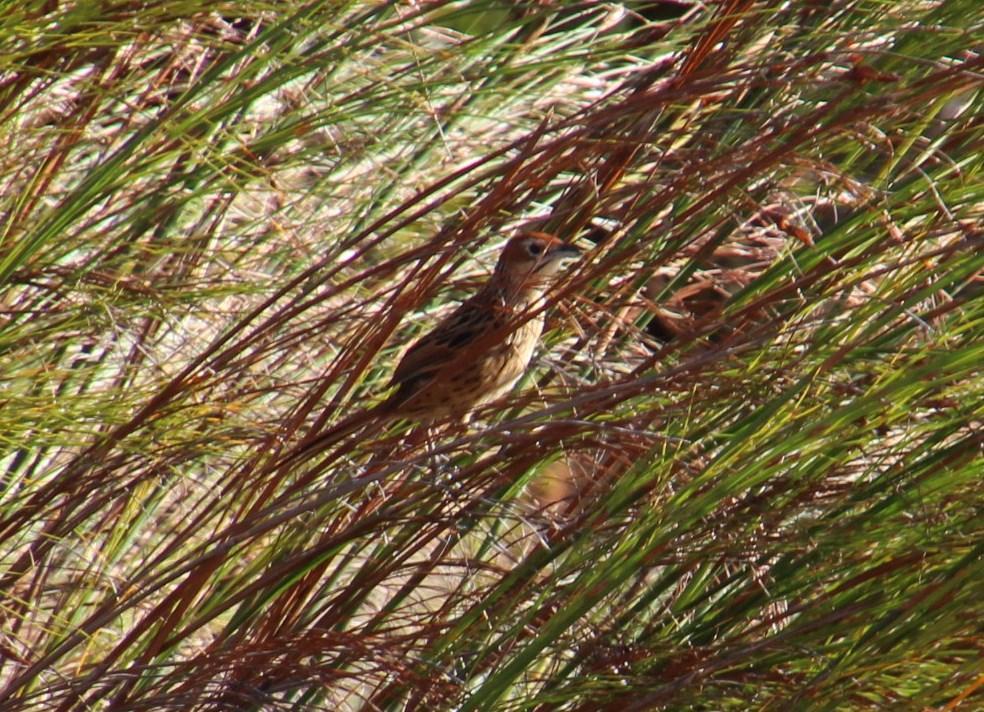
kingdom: Animalia
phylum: Chordata
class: Aves
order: Passeriformes
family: Macrosphenidae
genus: Sphenoeacus
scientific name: Sphenoeacus afer
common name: Cape grassbird
